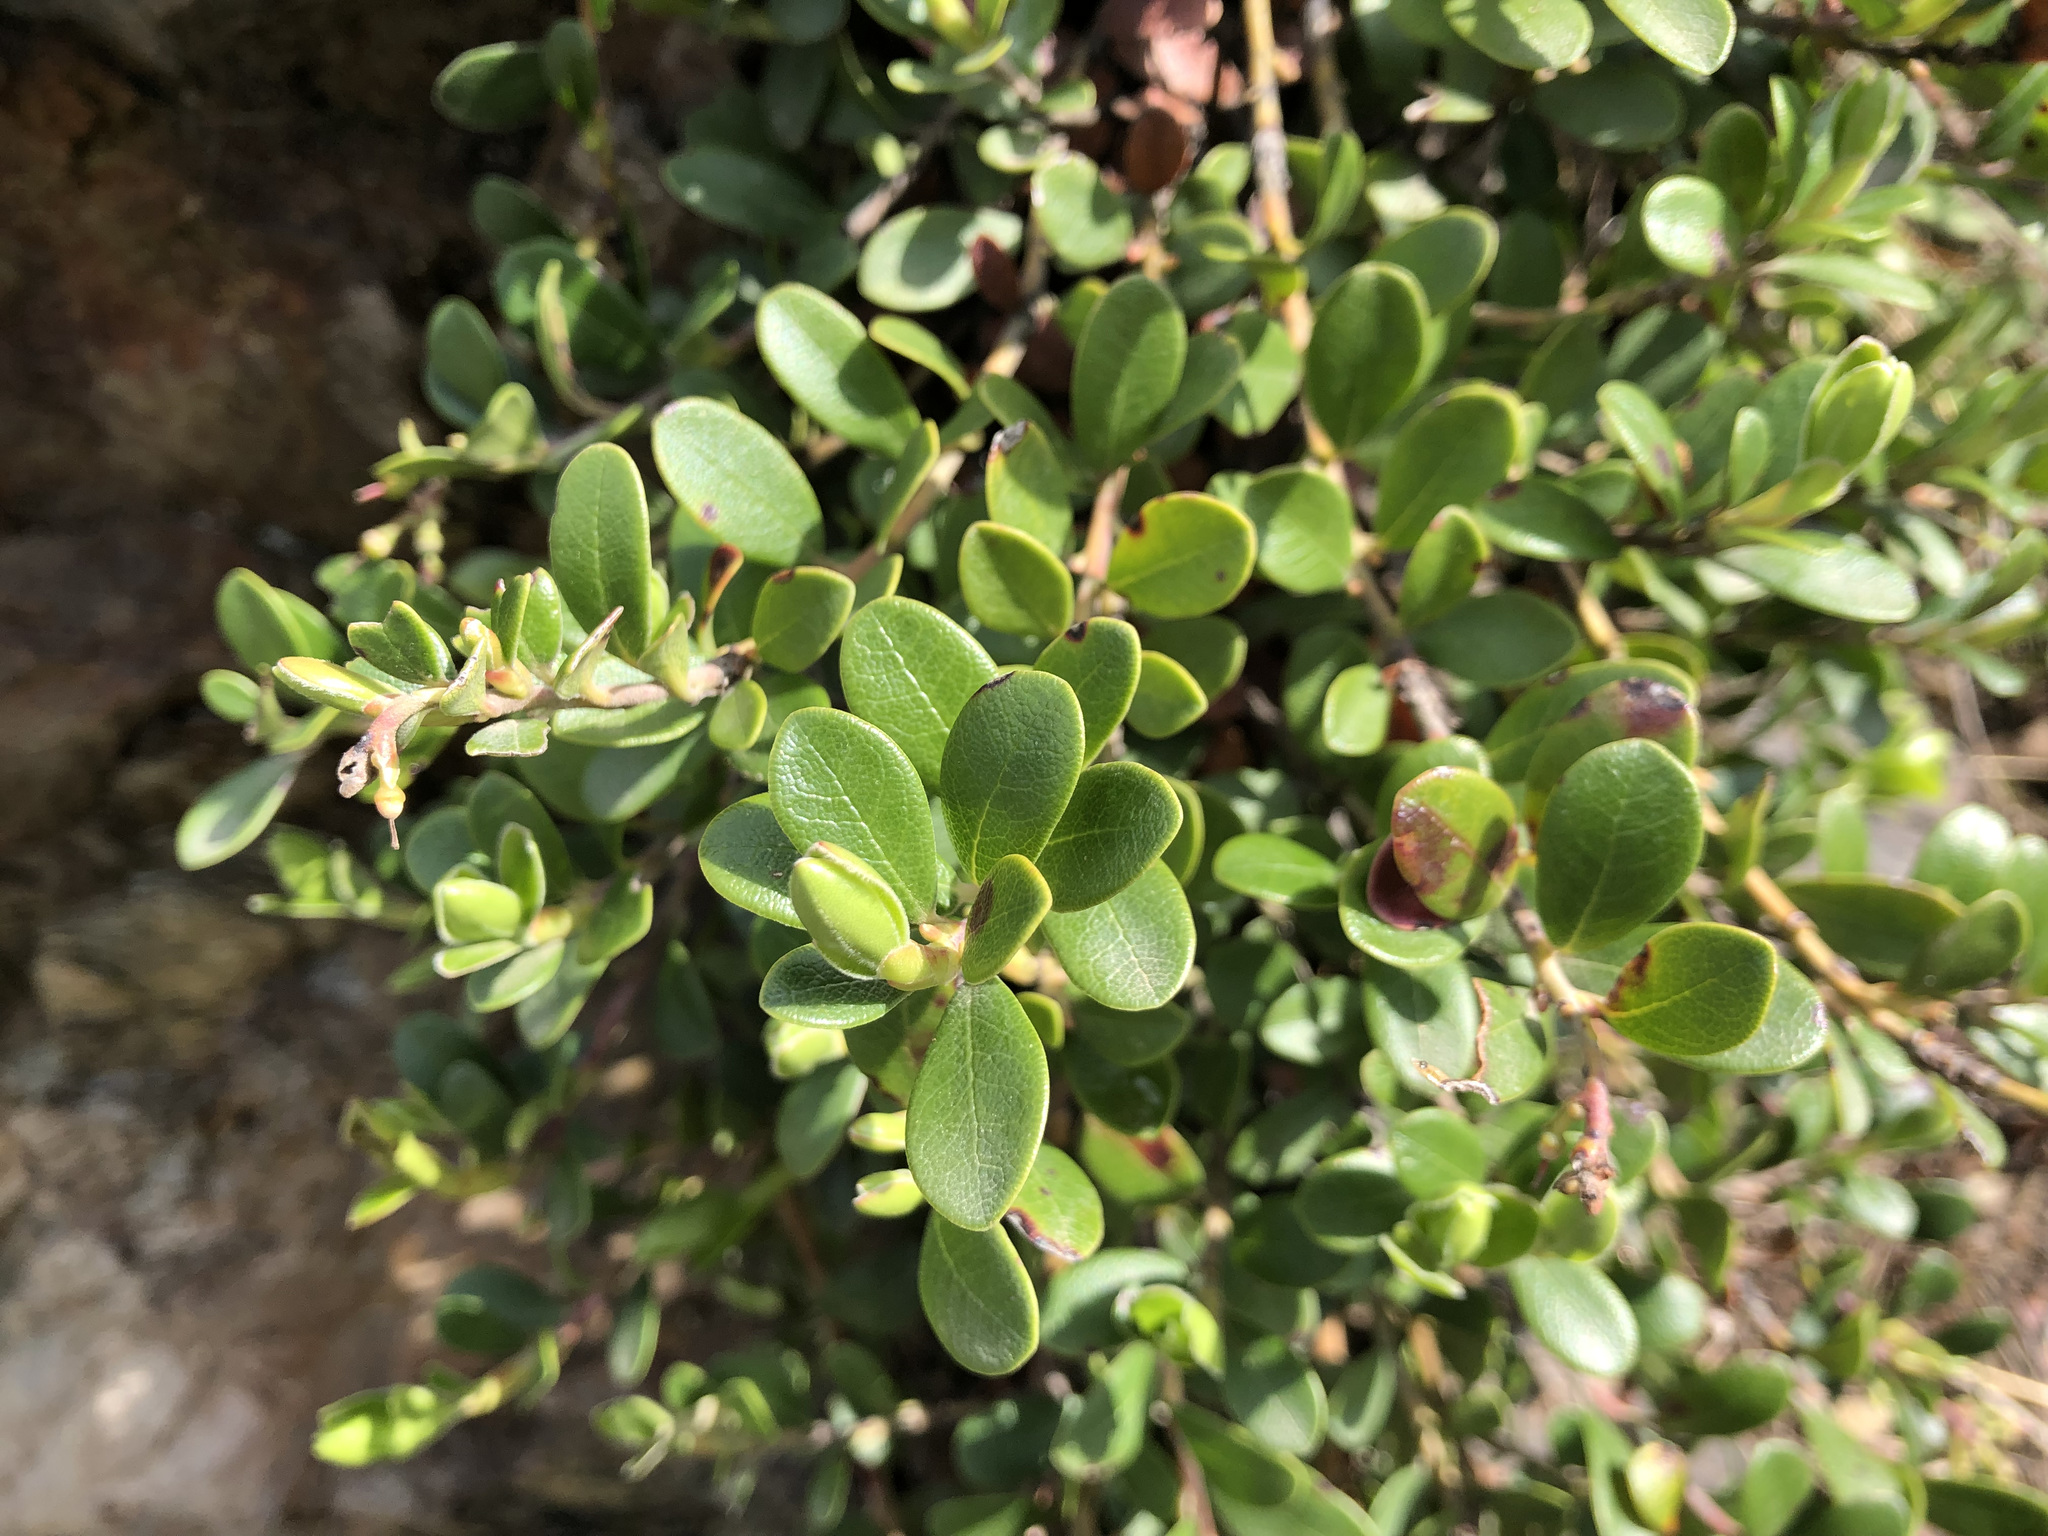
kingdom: Plantae
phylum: Tracheophyta
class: Magnoliopsida
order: Ericales
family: Ericaceae
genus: Arctostaphylos
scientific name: Arctostaphylos uva-ursi
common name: Bearberry
